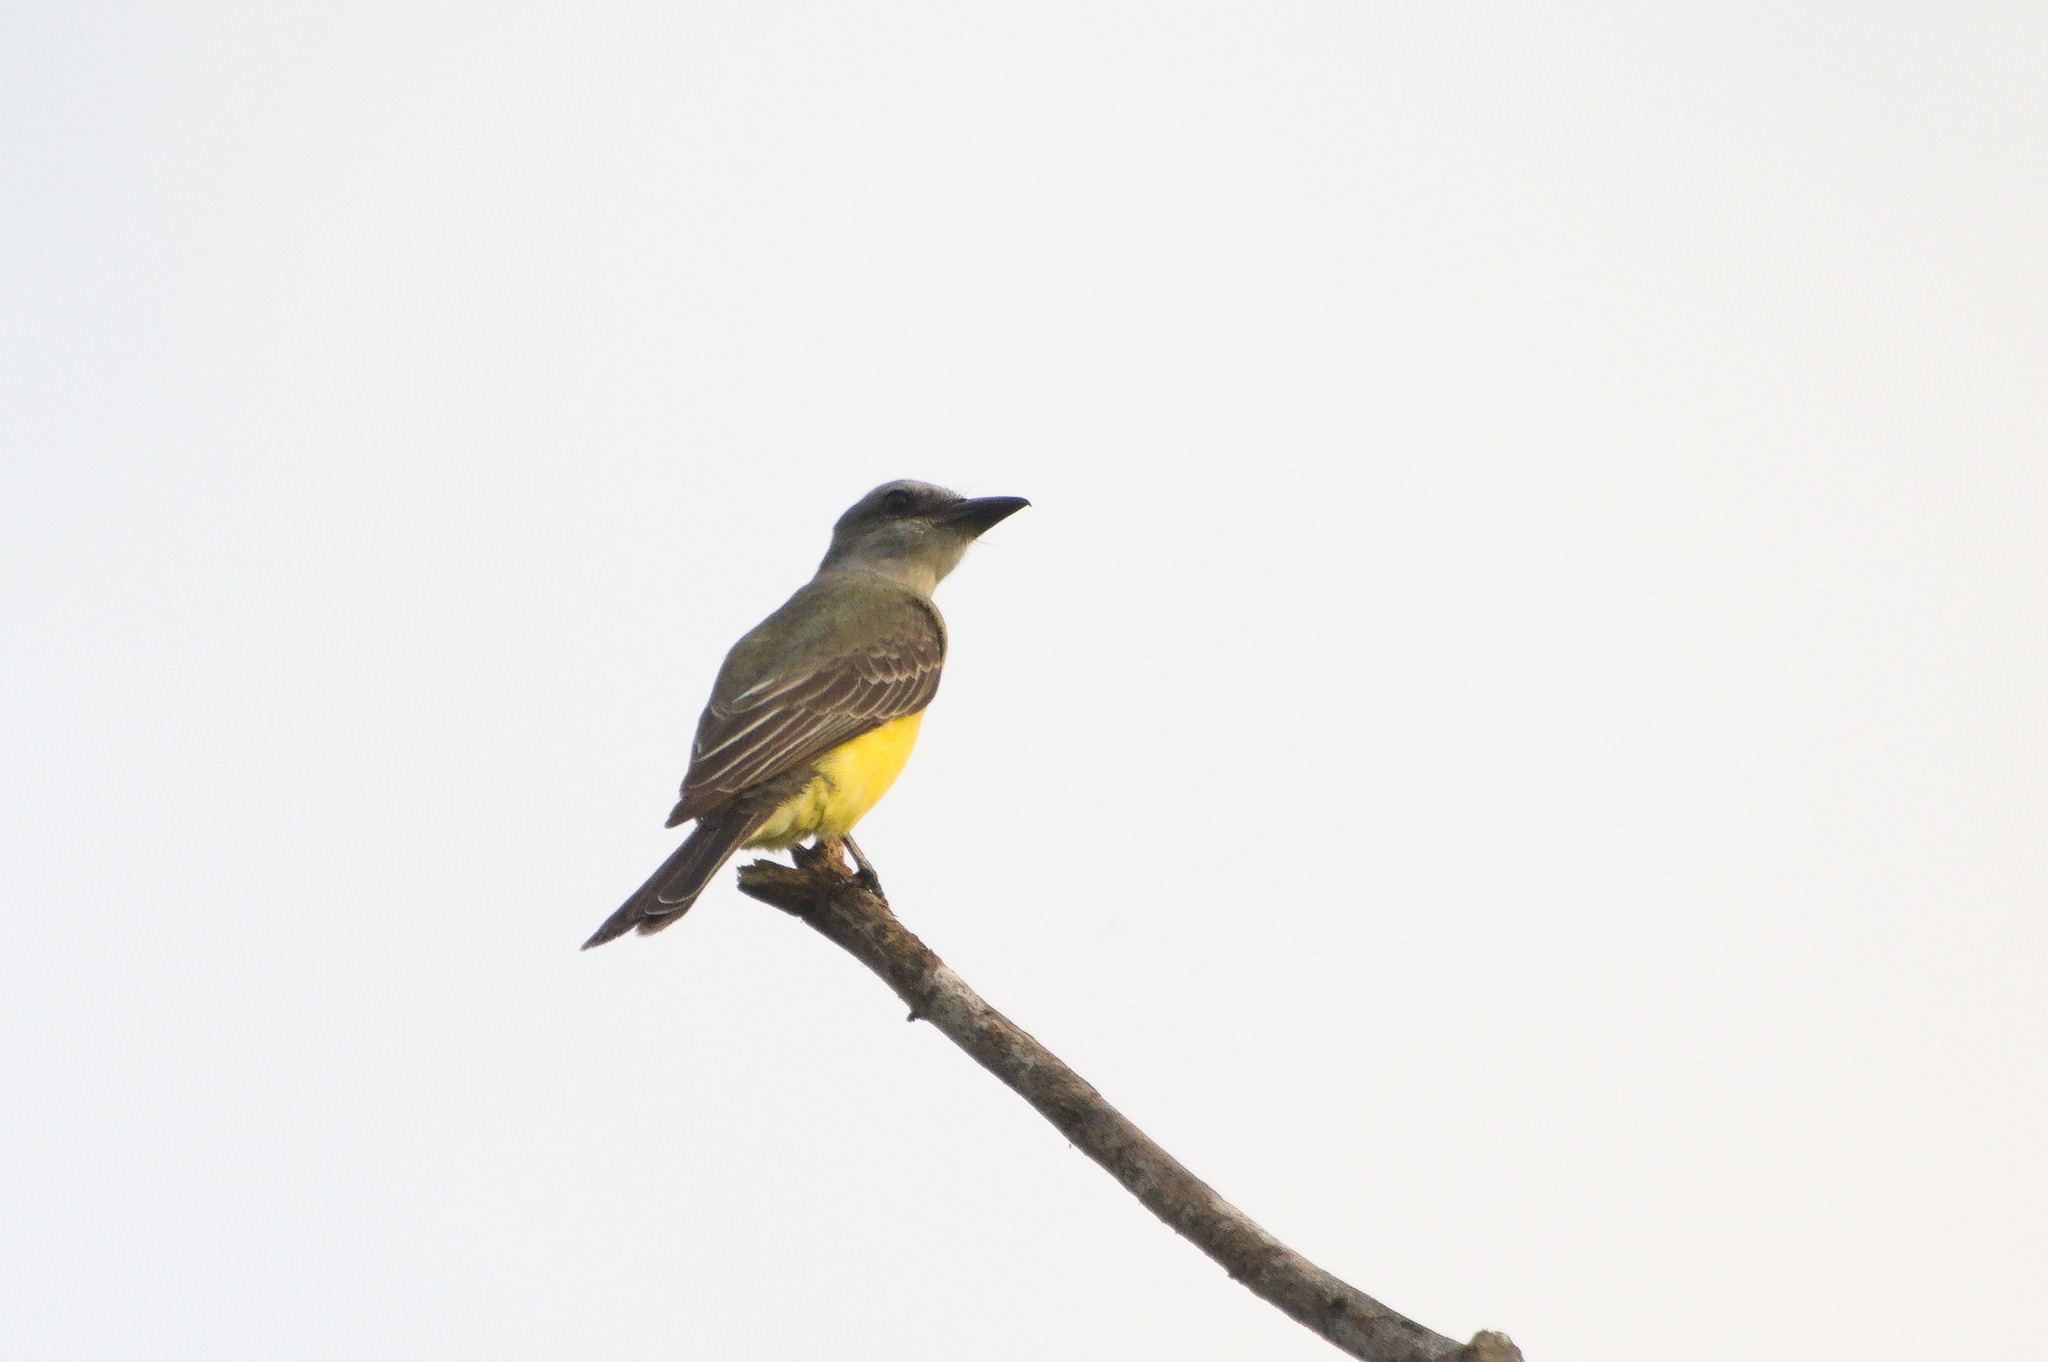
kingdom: Animalia
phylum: Chordata
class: Aves
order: Passeriformes
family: Tyrannidae
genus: Tyrannus
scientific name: Tyrannus melancholicus
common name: Tropical kingbird
